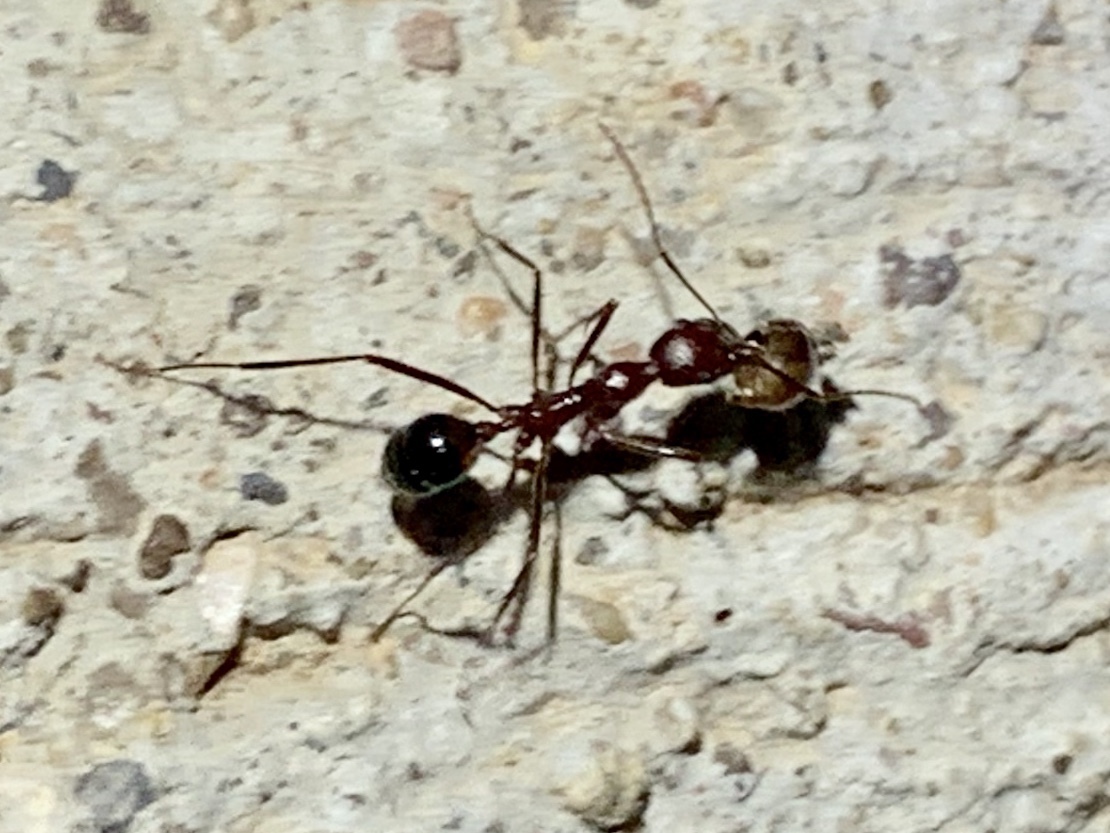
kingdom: Animalia
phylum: Arthropoda
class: Insecta
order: Hymenoptera
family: Formicidae
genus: Novomessor
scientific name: Novomessor cockerelli
